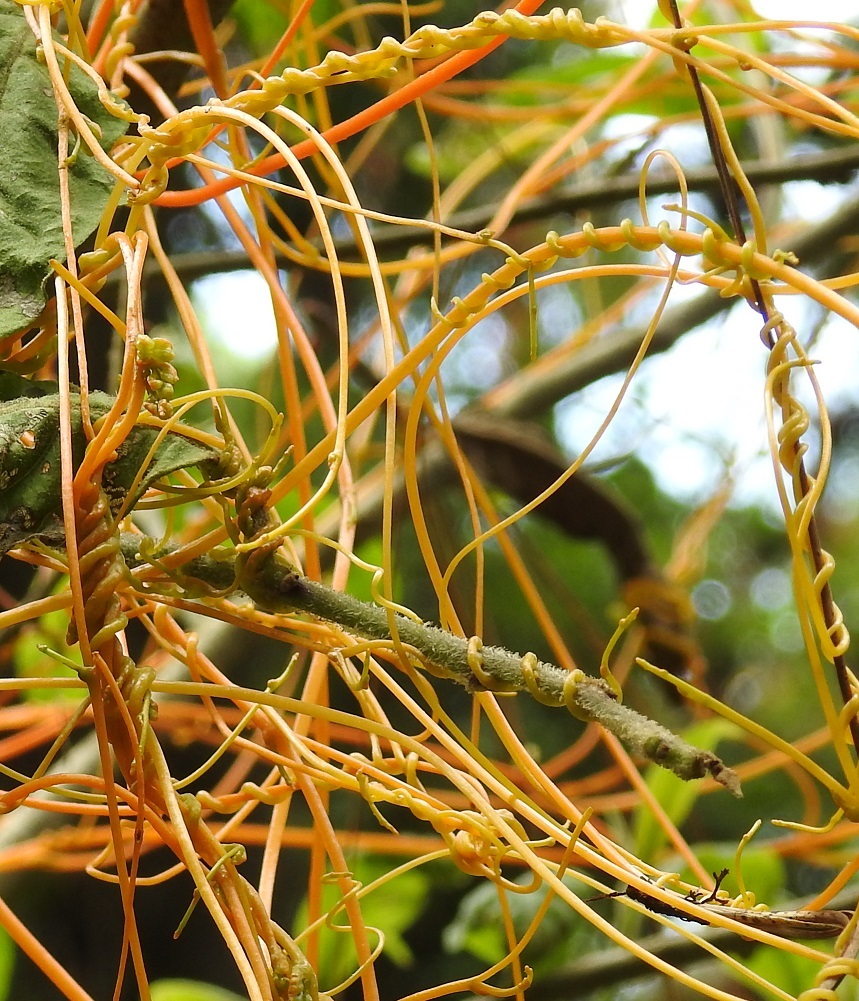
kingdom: Plantae
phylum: Tracheophyta
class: Magnoliopsida
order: Solanales
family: Convolvulaceae
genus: Cuscuta
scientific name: Cuscuta tinctoria
